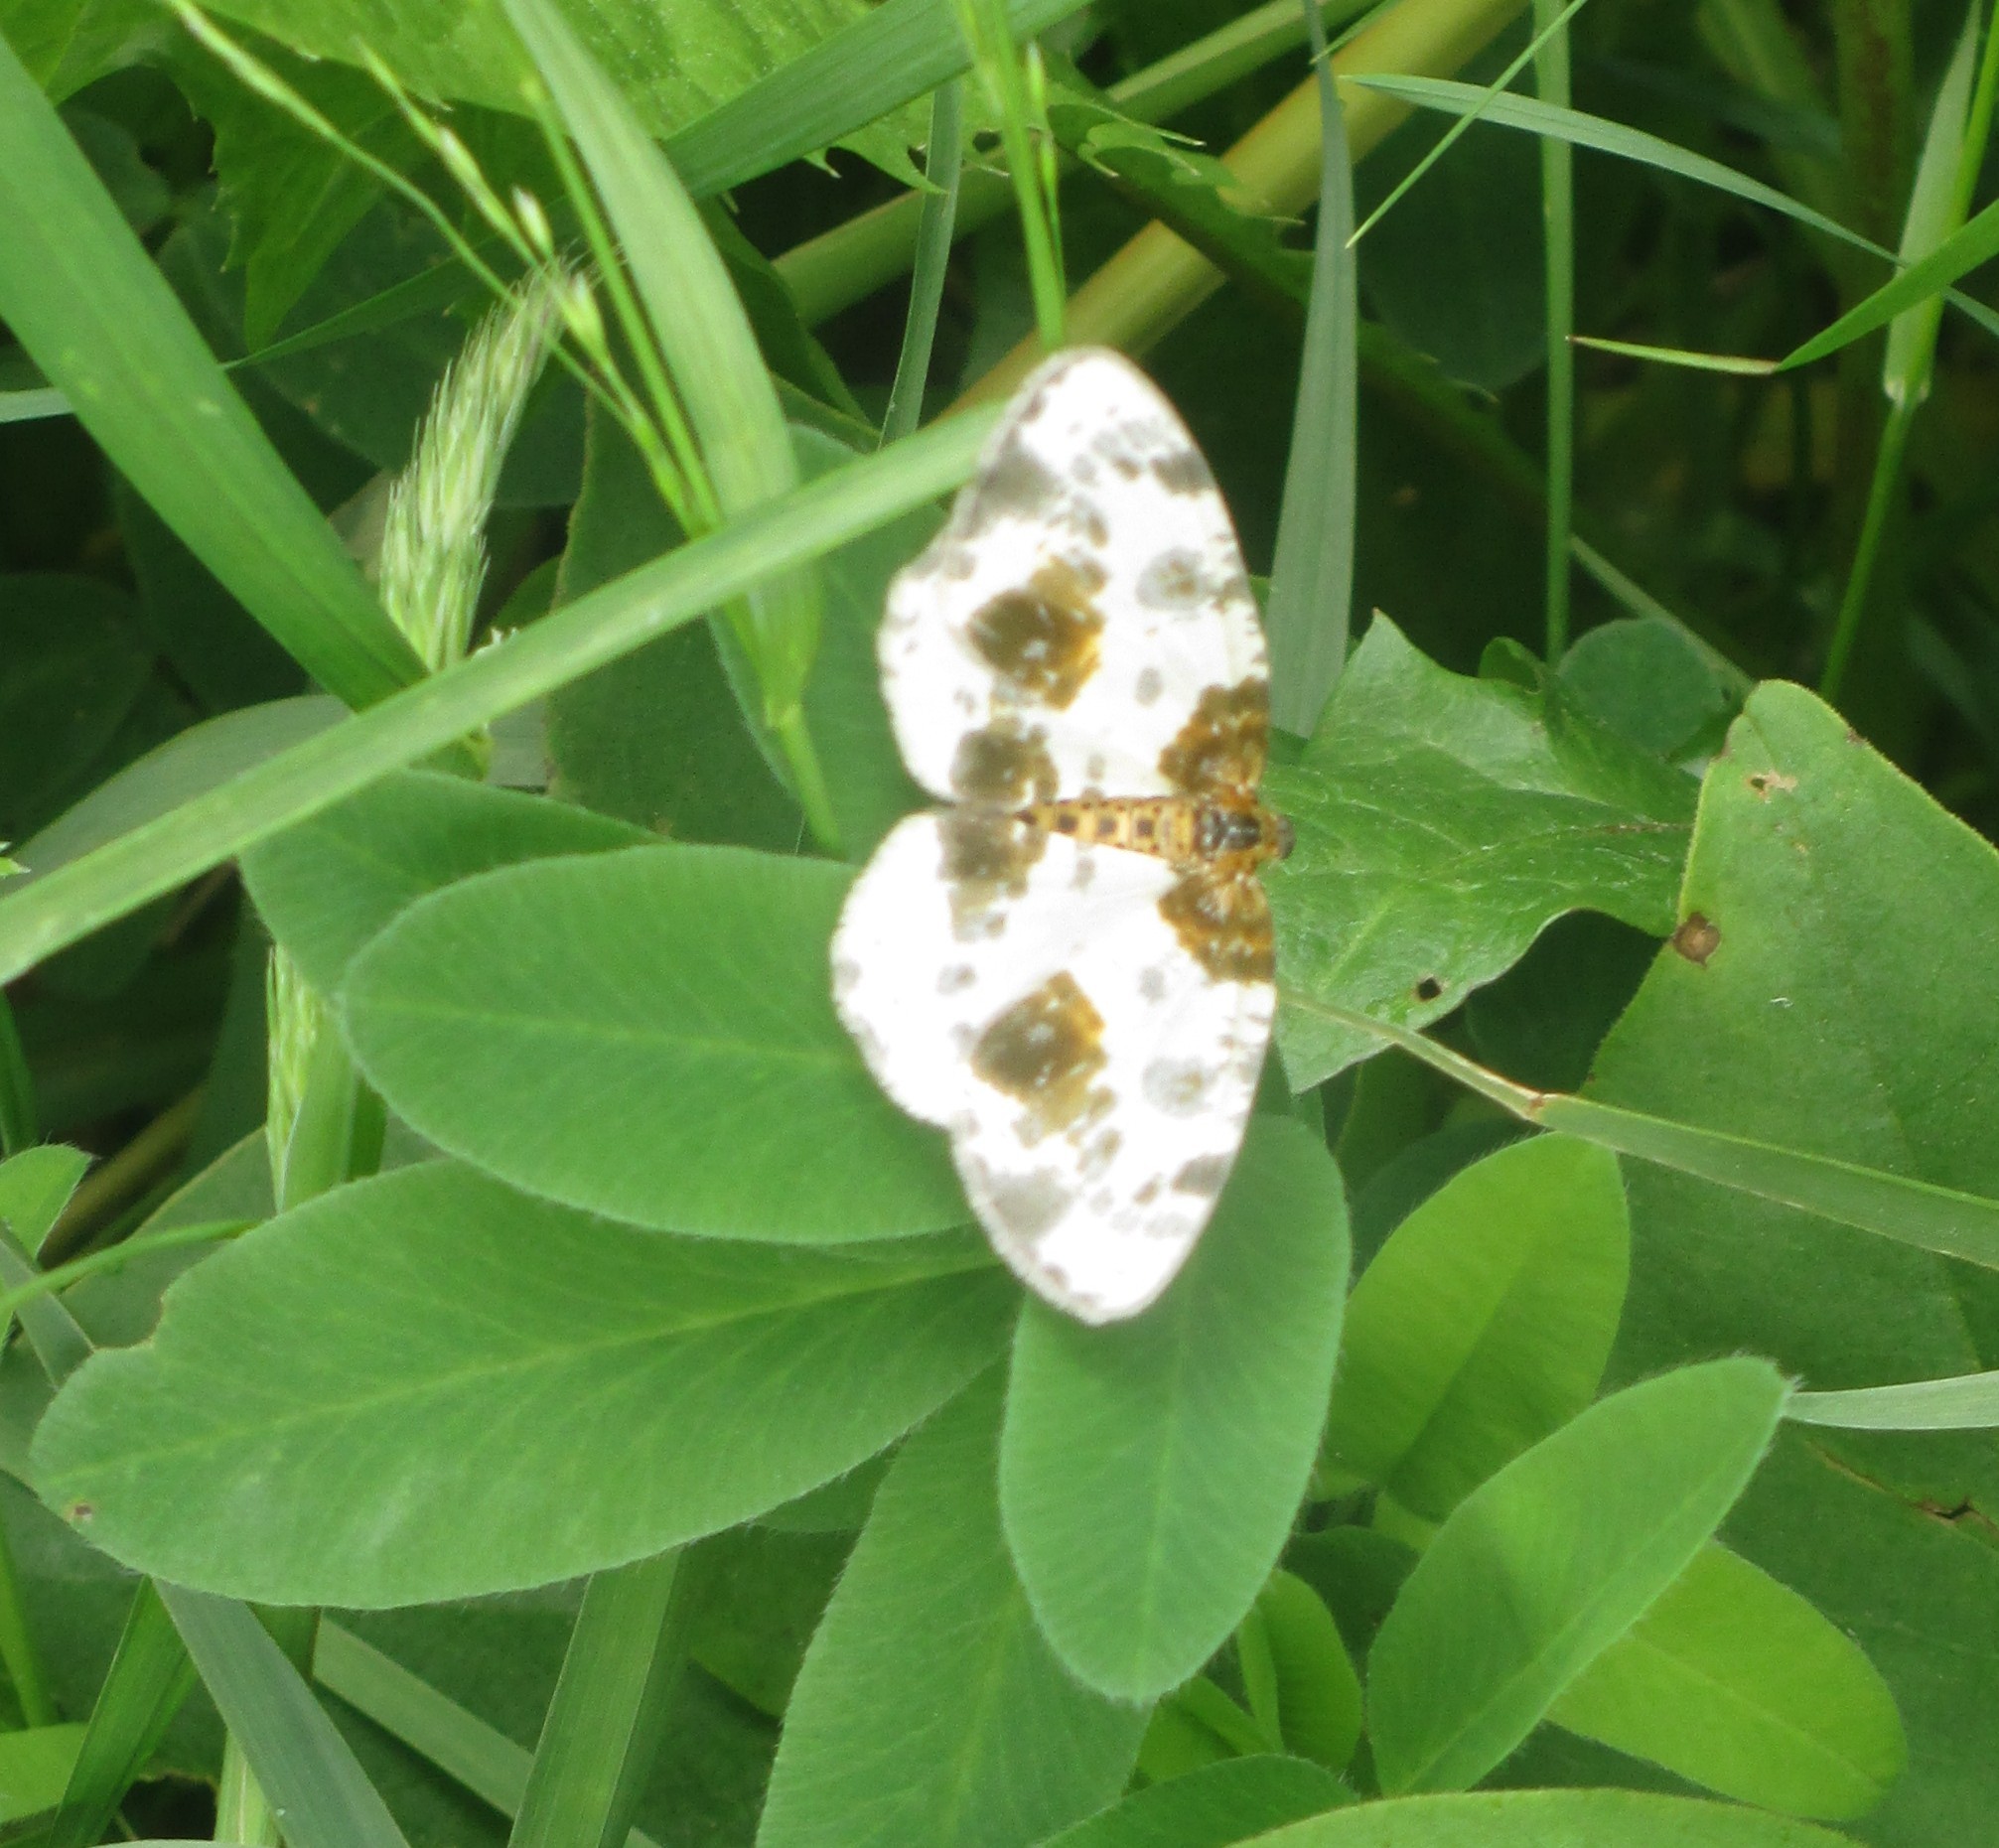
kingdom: Animalia
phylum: Arthropoda
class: Insecta
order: Lepidoptera
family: Geometridae
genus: Abraxas
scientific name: Abraxas sylvata
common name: Clouded magpie
